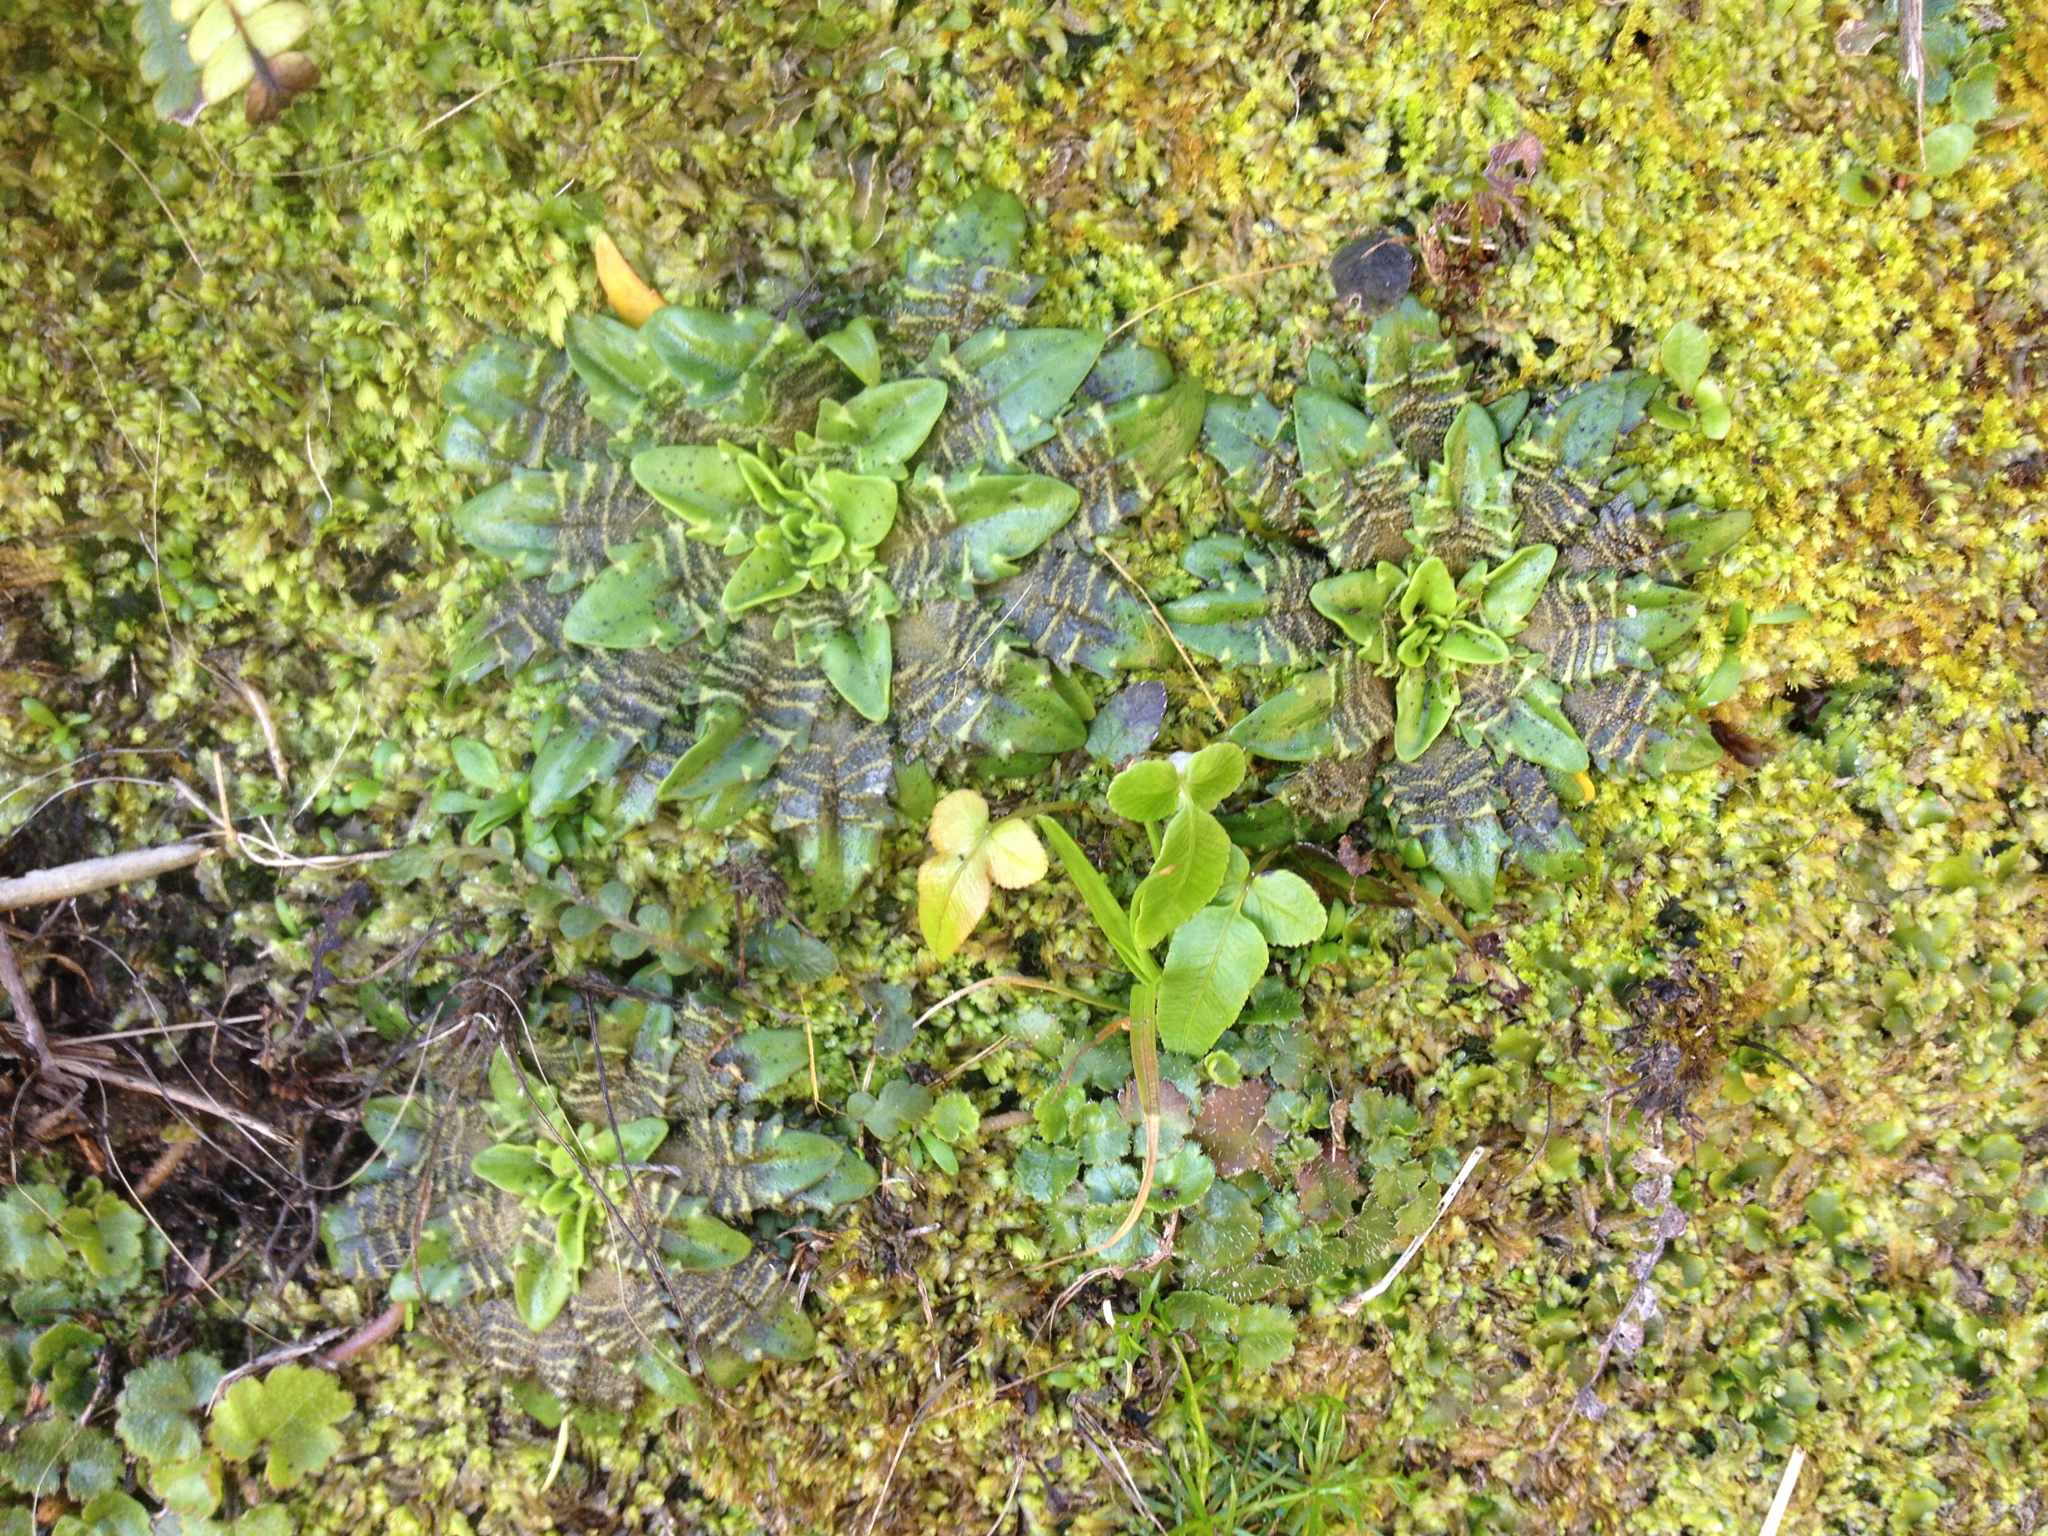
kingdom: Plantae
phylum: Tracheophyta
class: Magnoliopsida
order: Lamiales
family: Plantaginaceae
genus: Plantago
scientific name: Plantago triandra
